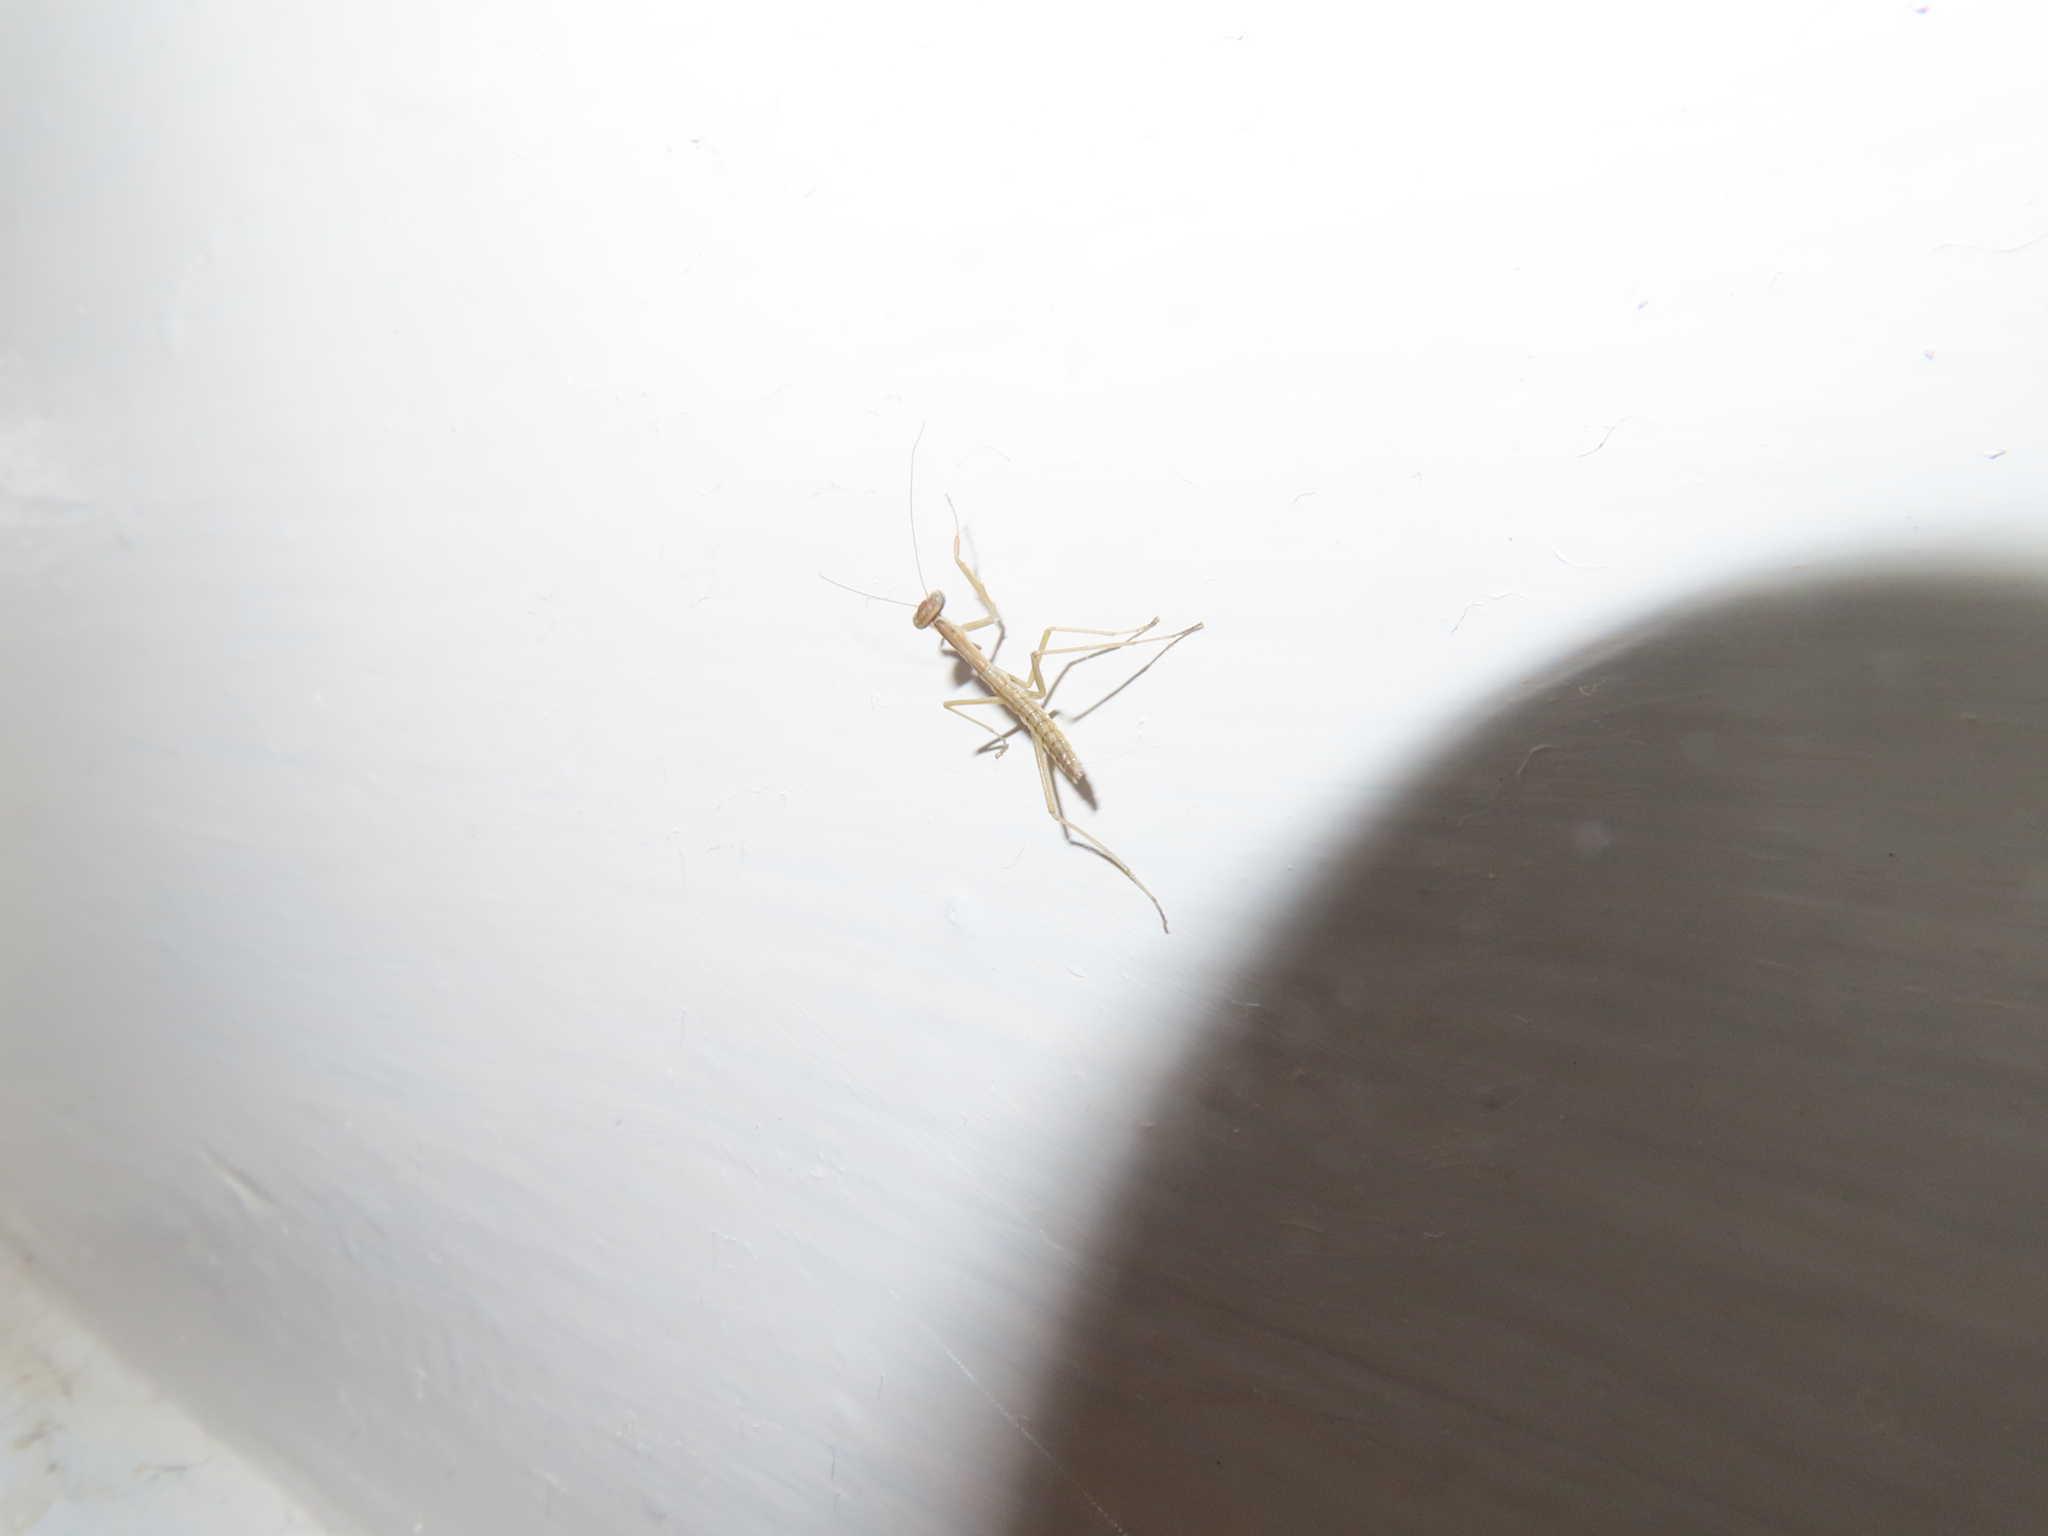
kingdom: Animalia
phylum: Arthropoda
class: Insecta
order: Mantodea
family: Mantidae
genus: Tenodera
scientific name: Tenodera sinensis
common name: Chinese mantis
